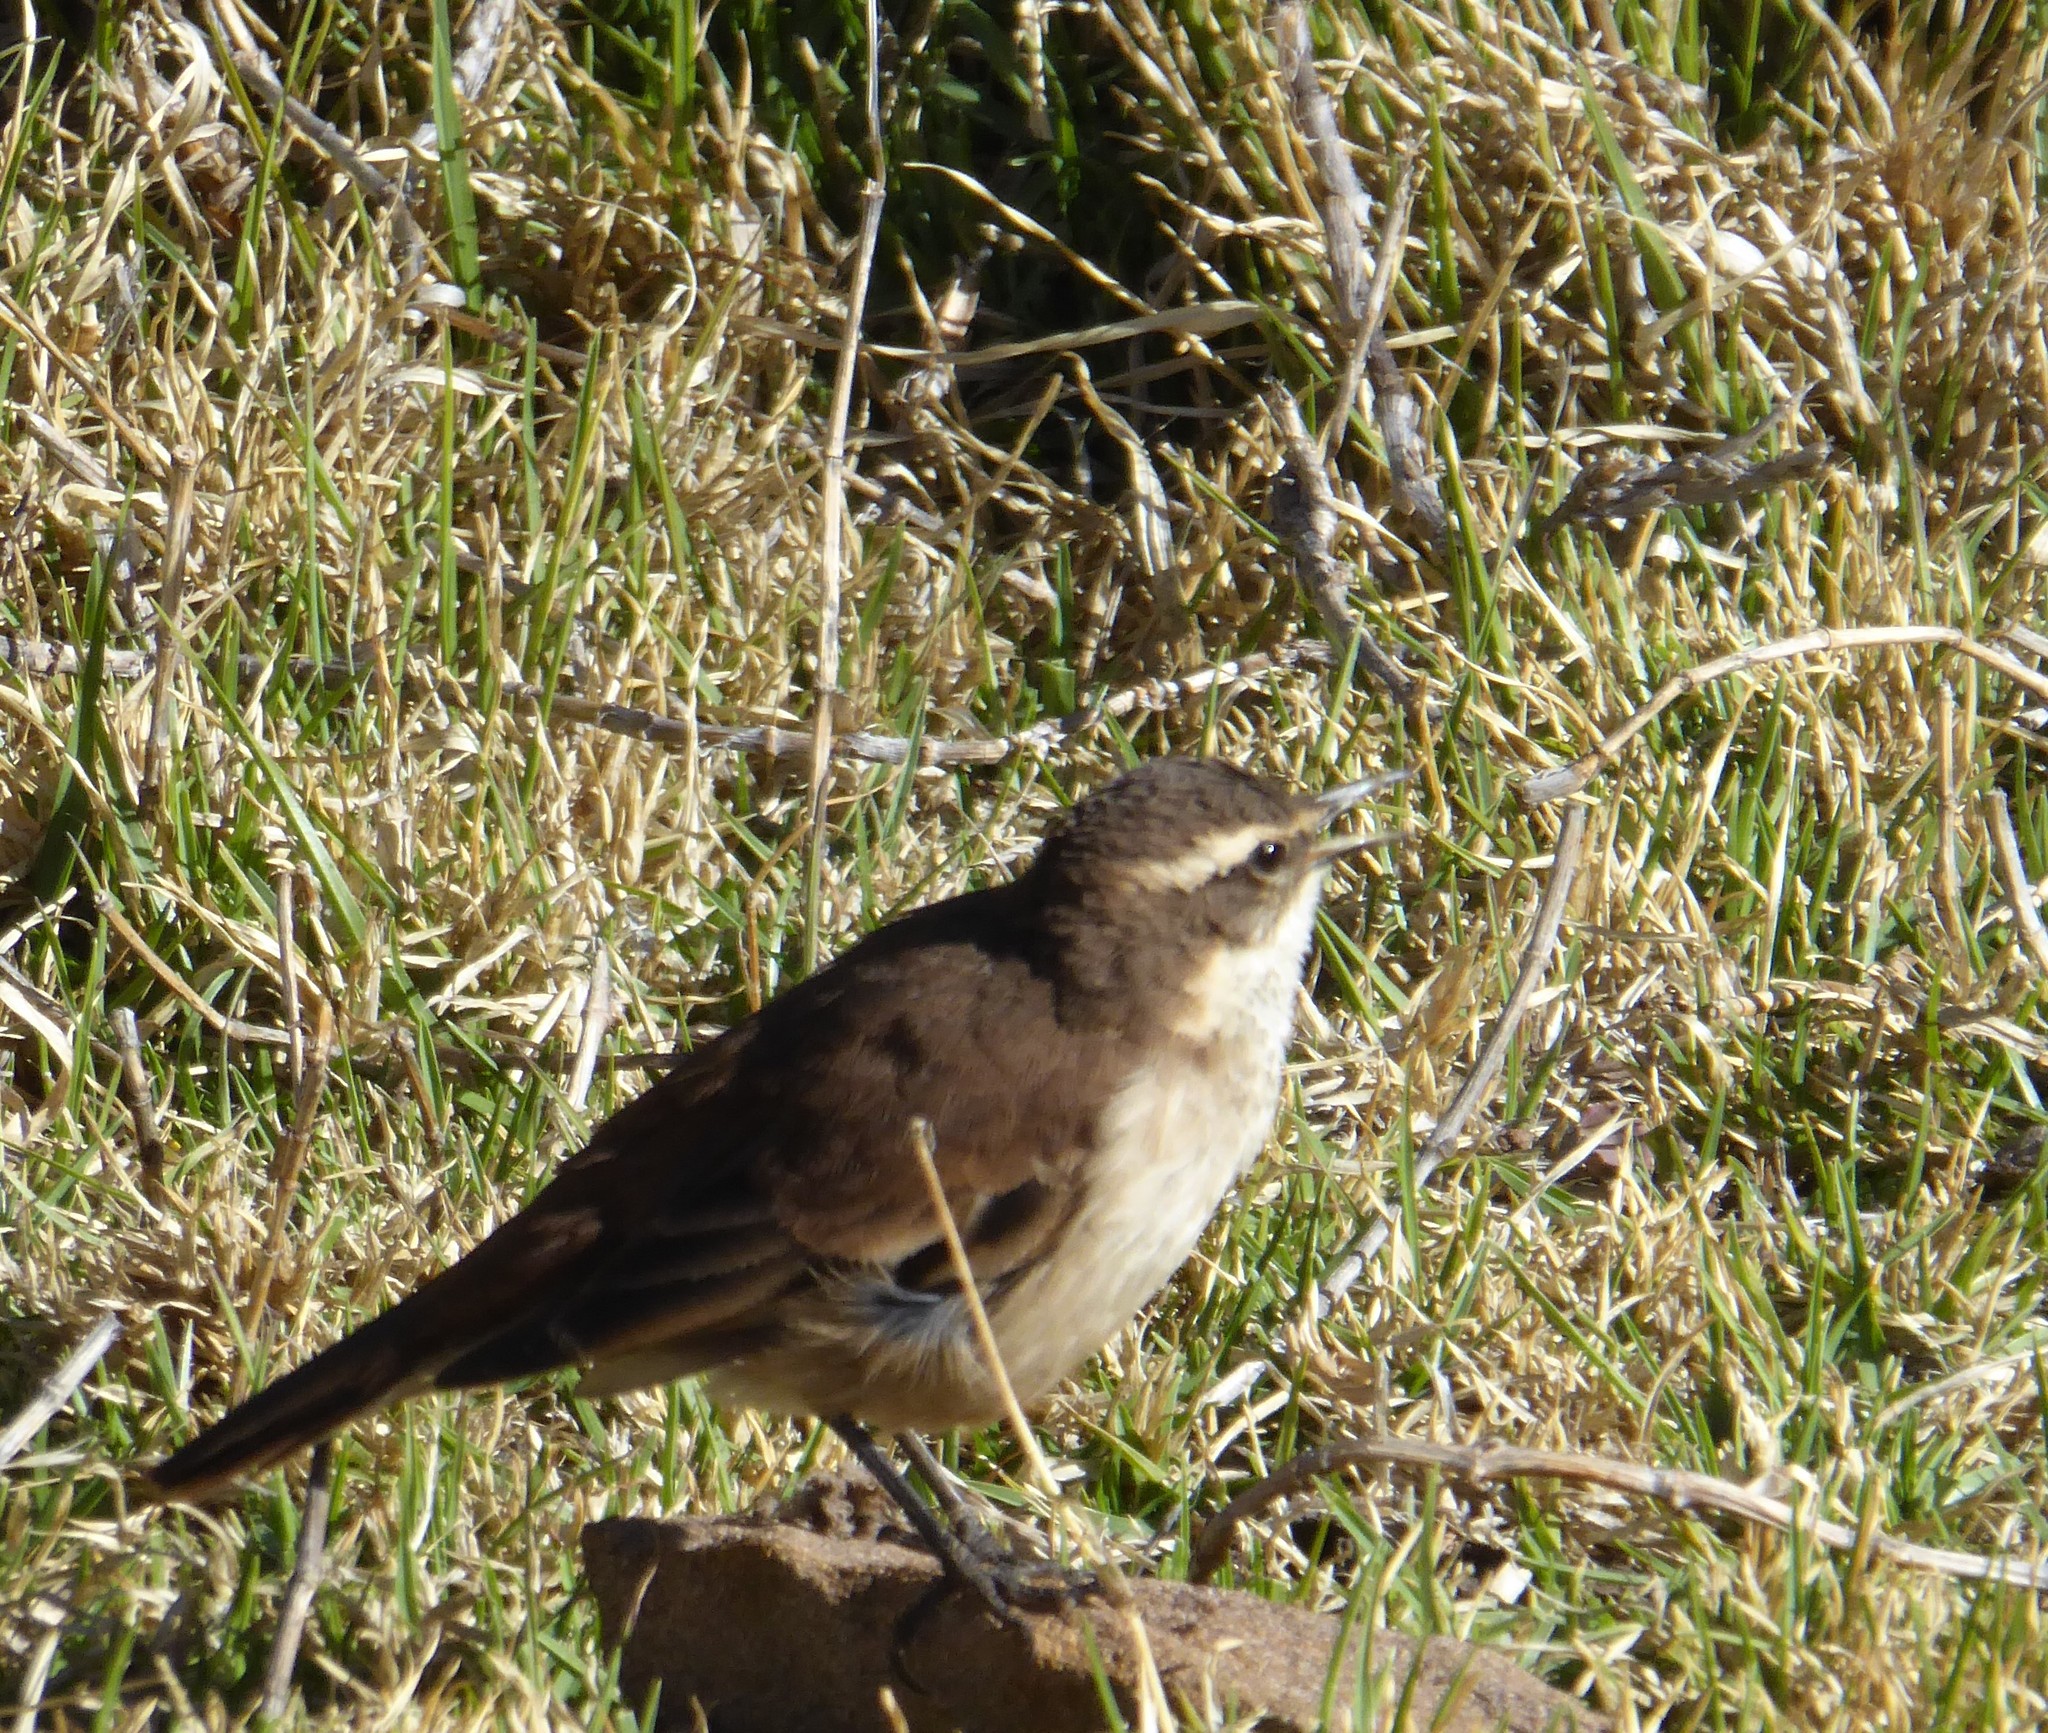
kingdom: Animalia
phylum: Chordata
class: Aves
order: Passeriformes
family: Furnariidae
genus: Cinclodes
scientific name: Cinclodes fuscus
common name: Buff-winged cinclodes
